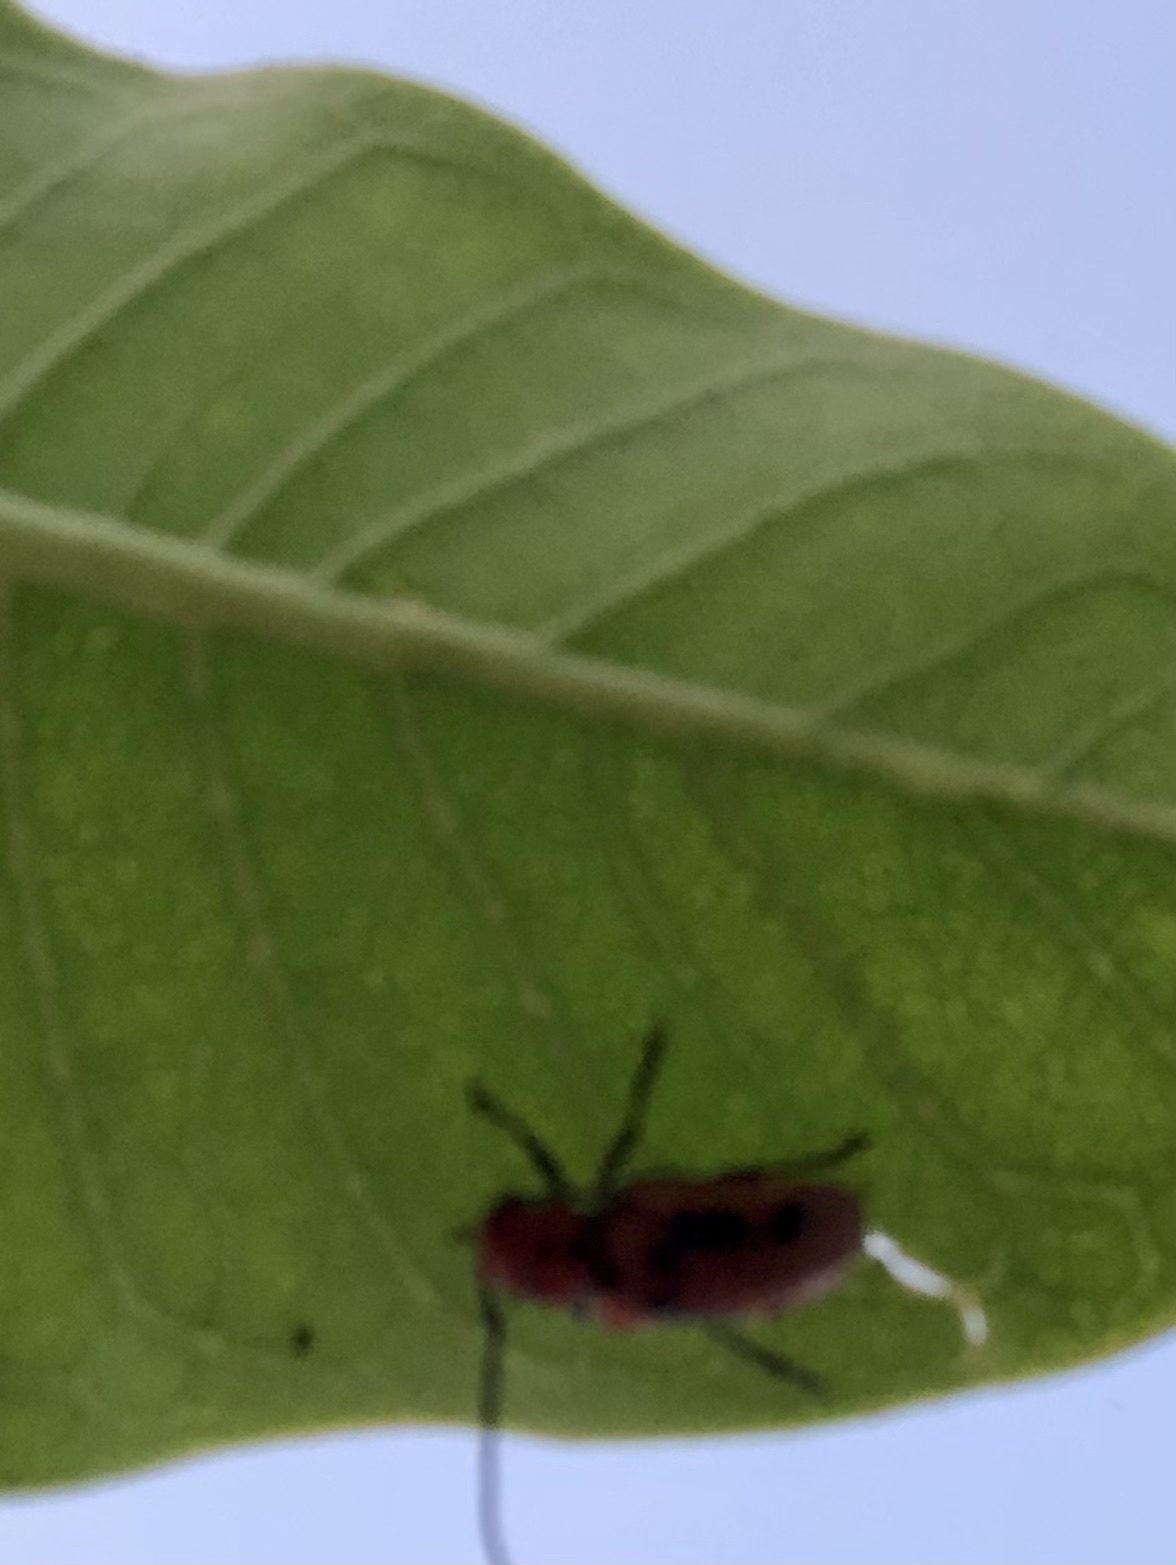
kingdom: Animalia
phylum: Arthropoda
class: Insecta
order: Coleoptera
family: Cerambycidae
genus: Tetraopes
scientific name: Tetraopes tetrophthalmus
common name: Red milkweed beetle
